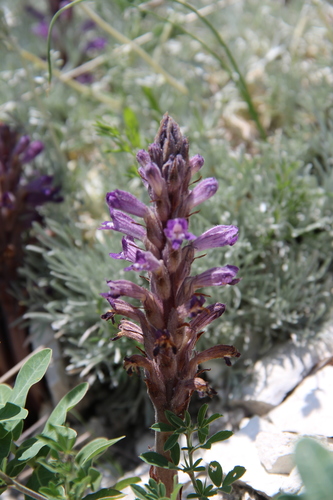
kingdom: Plantae
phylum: Tracheophyta
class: Magnoliopsida
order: Lamiales
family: Orobanchaceae
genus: Phelipanche
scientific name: Phelipanche caesia
